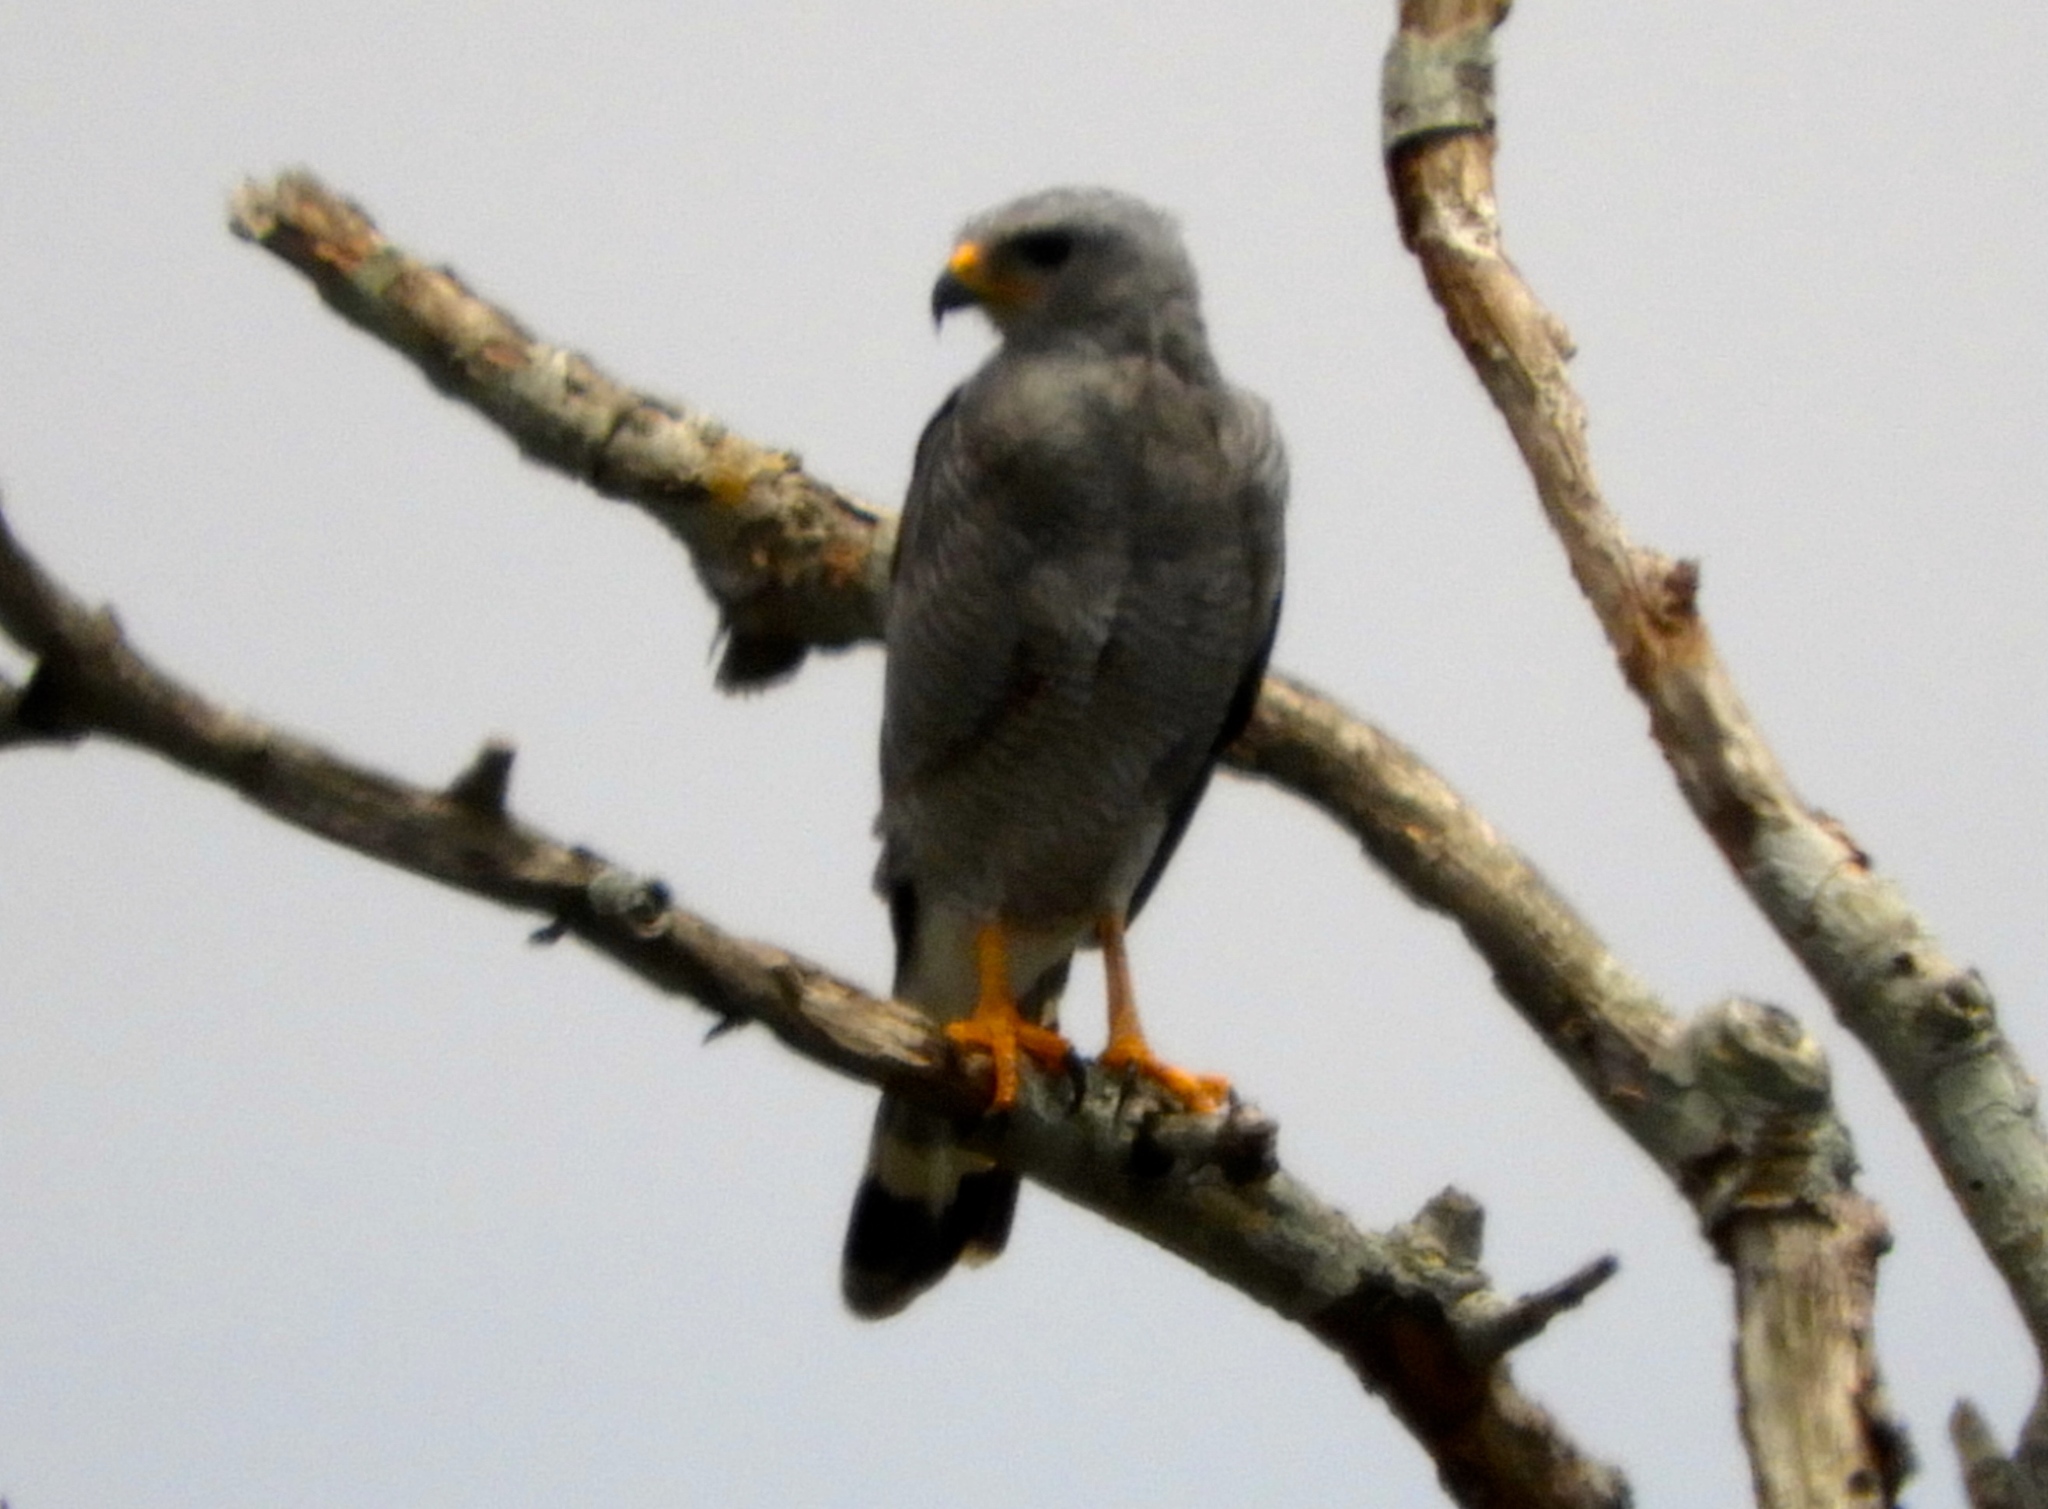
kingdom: Animalia
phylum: Chordata
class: Aves
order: Accipitriformes
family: Accipitridae
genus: Buteo
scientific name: Buteo nitidus
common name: Grey-lined hawk
